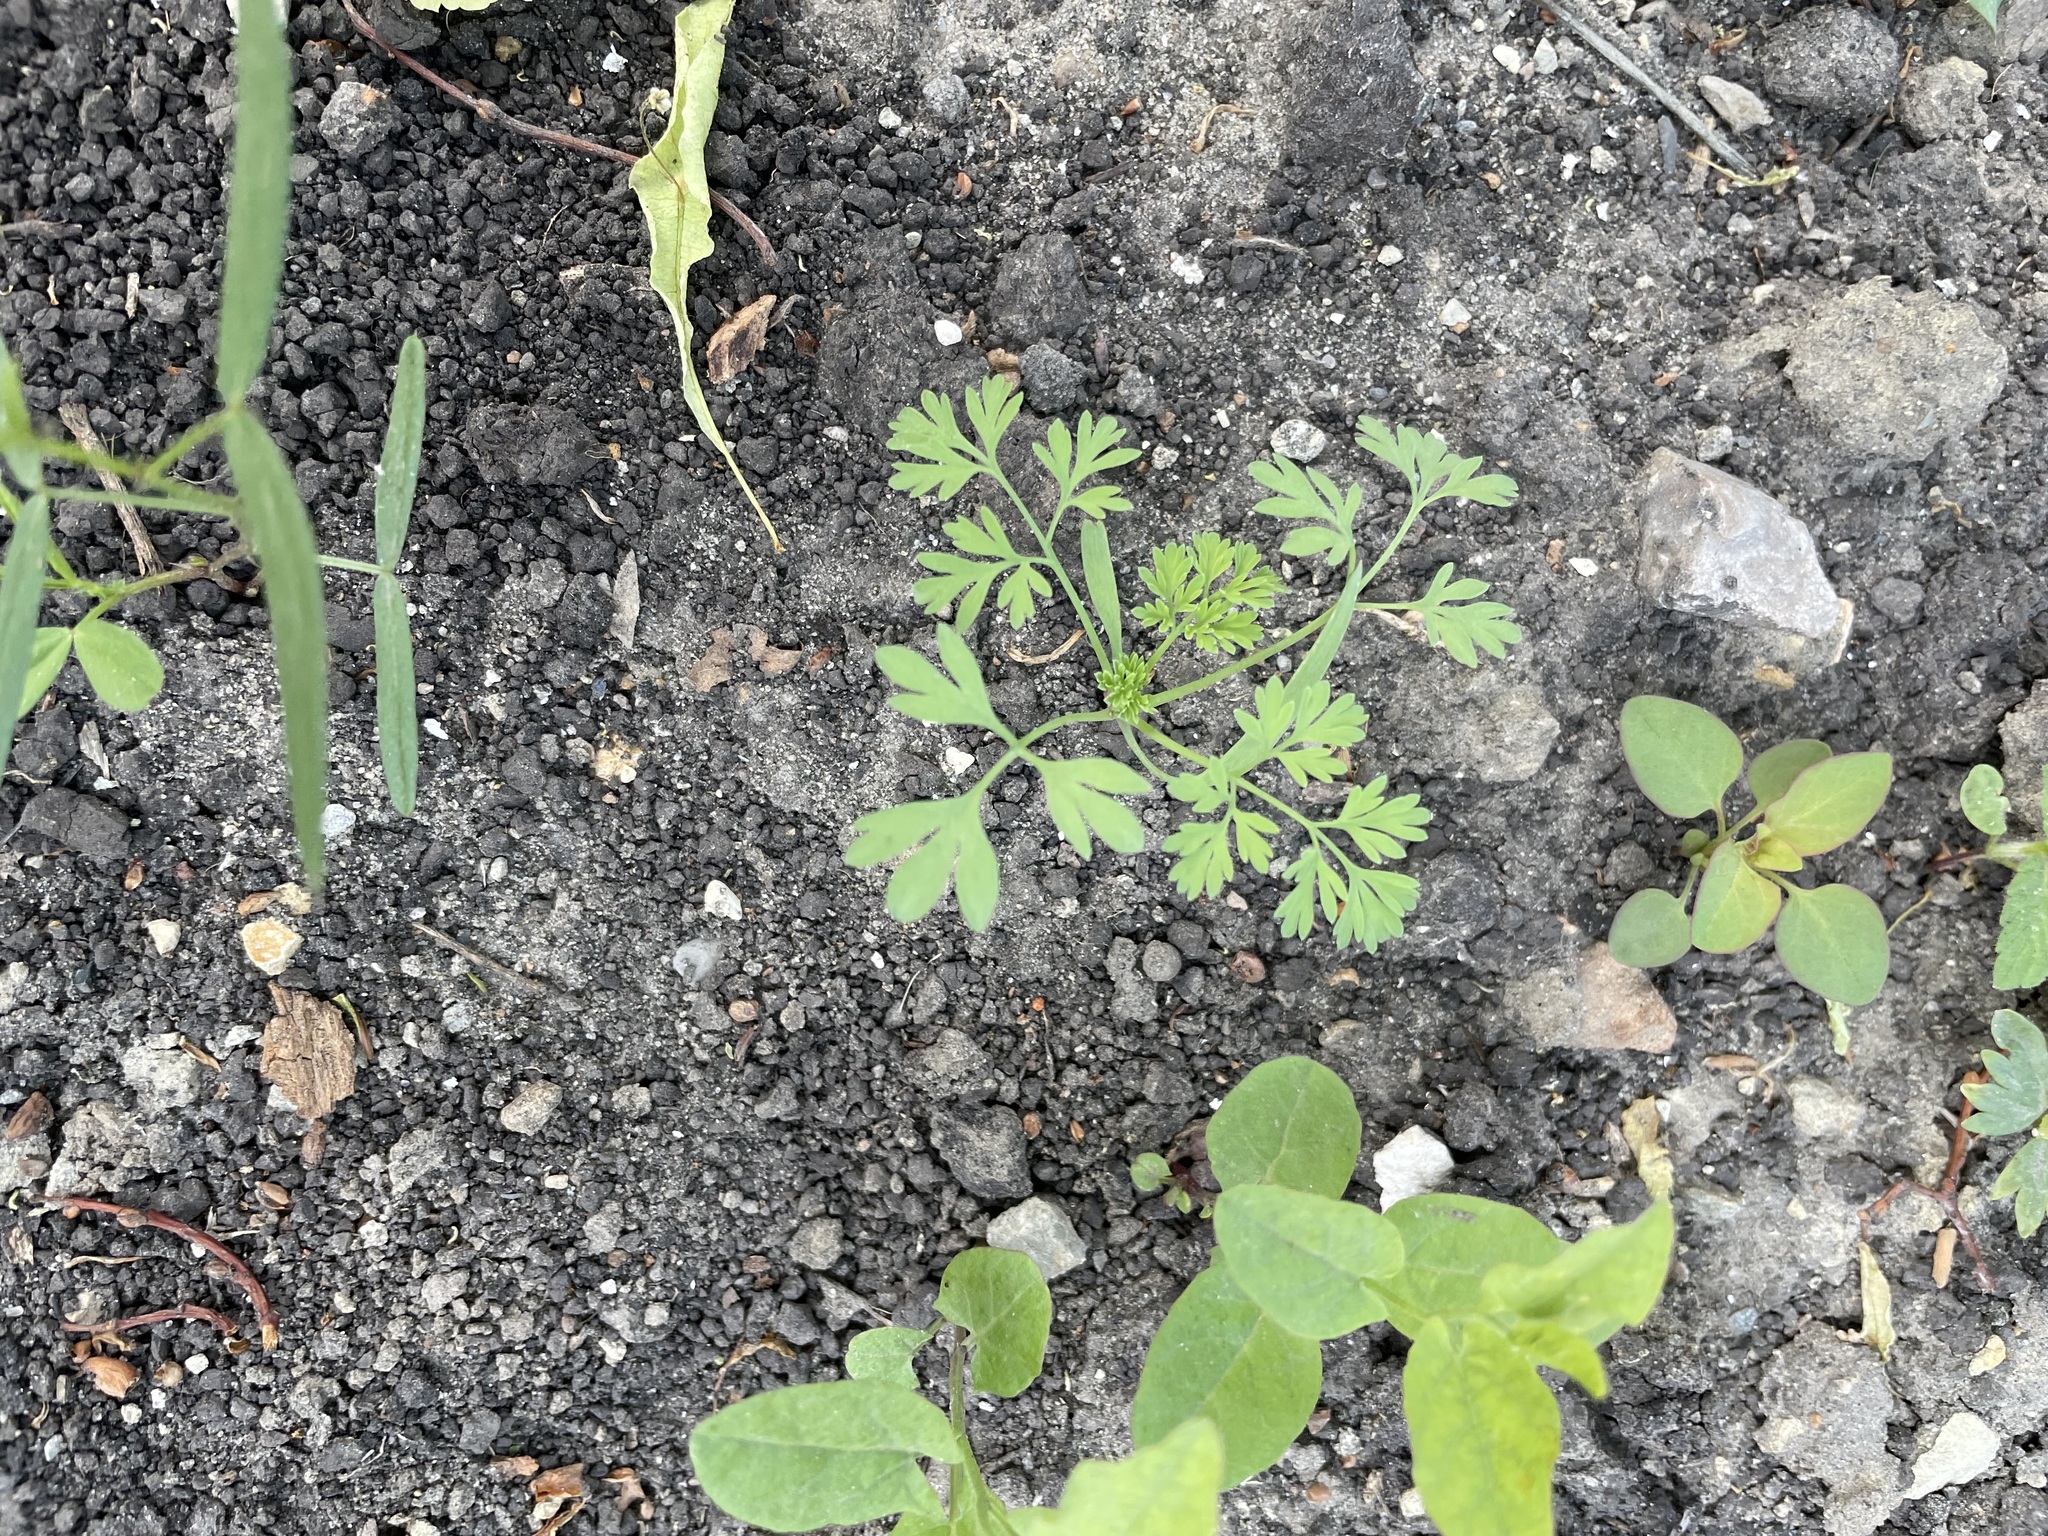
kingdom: Plantae
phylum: Tracheophyta
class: Magnoliopsida
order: Ranunculales
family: Papaveraceae
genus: Fumaria
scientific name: Fumaria officinalis
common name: Common fumitory
